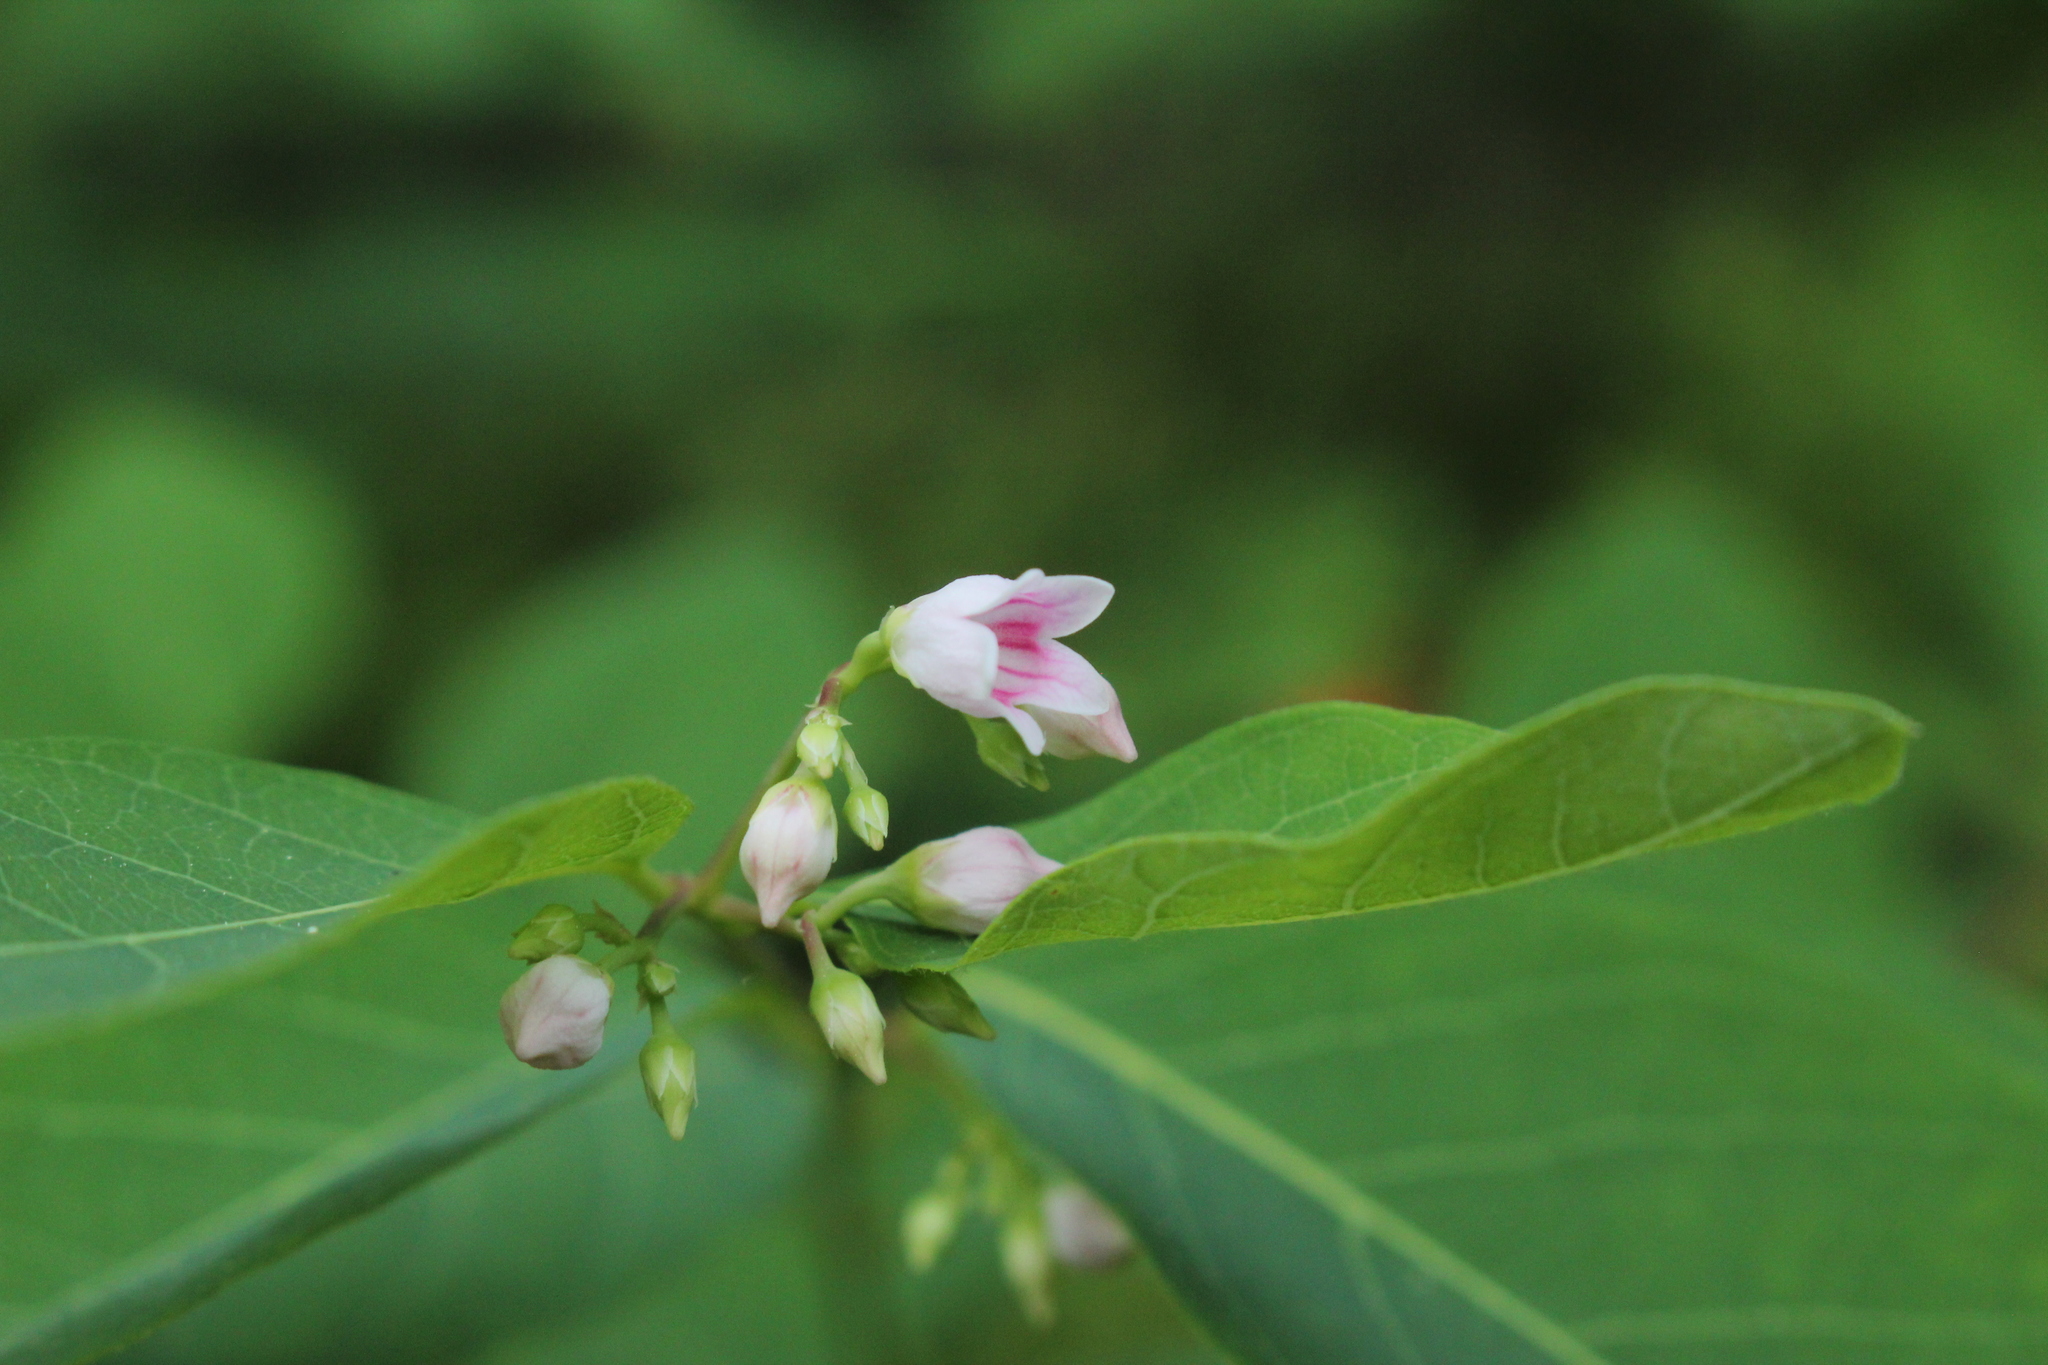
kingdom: Plantae
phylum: Tracheophyta
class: Magnoliopsida
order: Gentianales
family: Apocynaceae
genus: Apocynum
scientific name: Apocynum androsaemifolium
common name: Spreading dogbane
